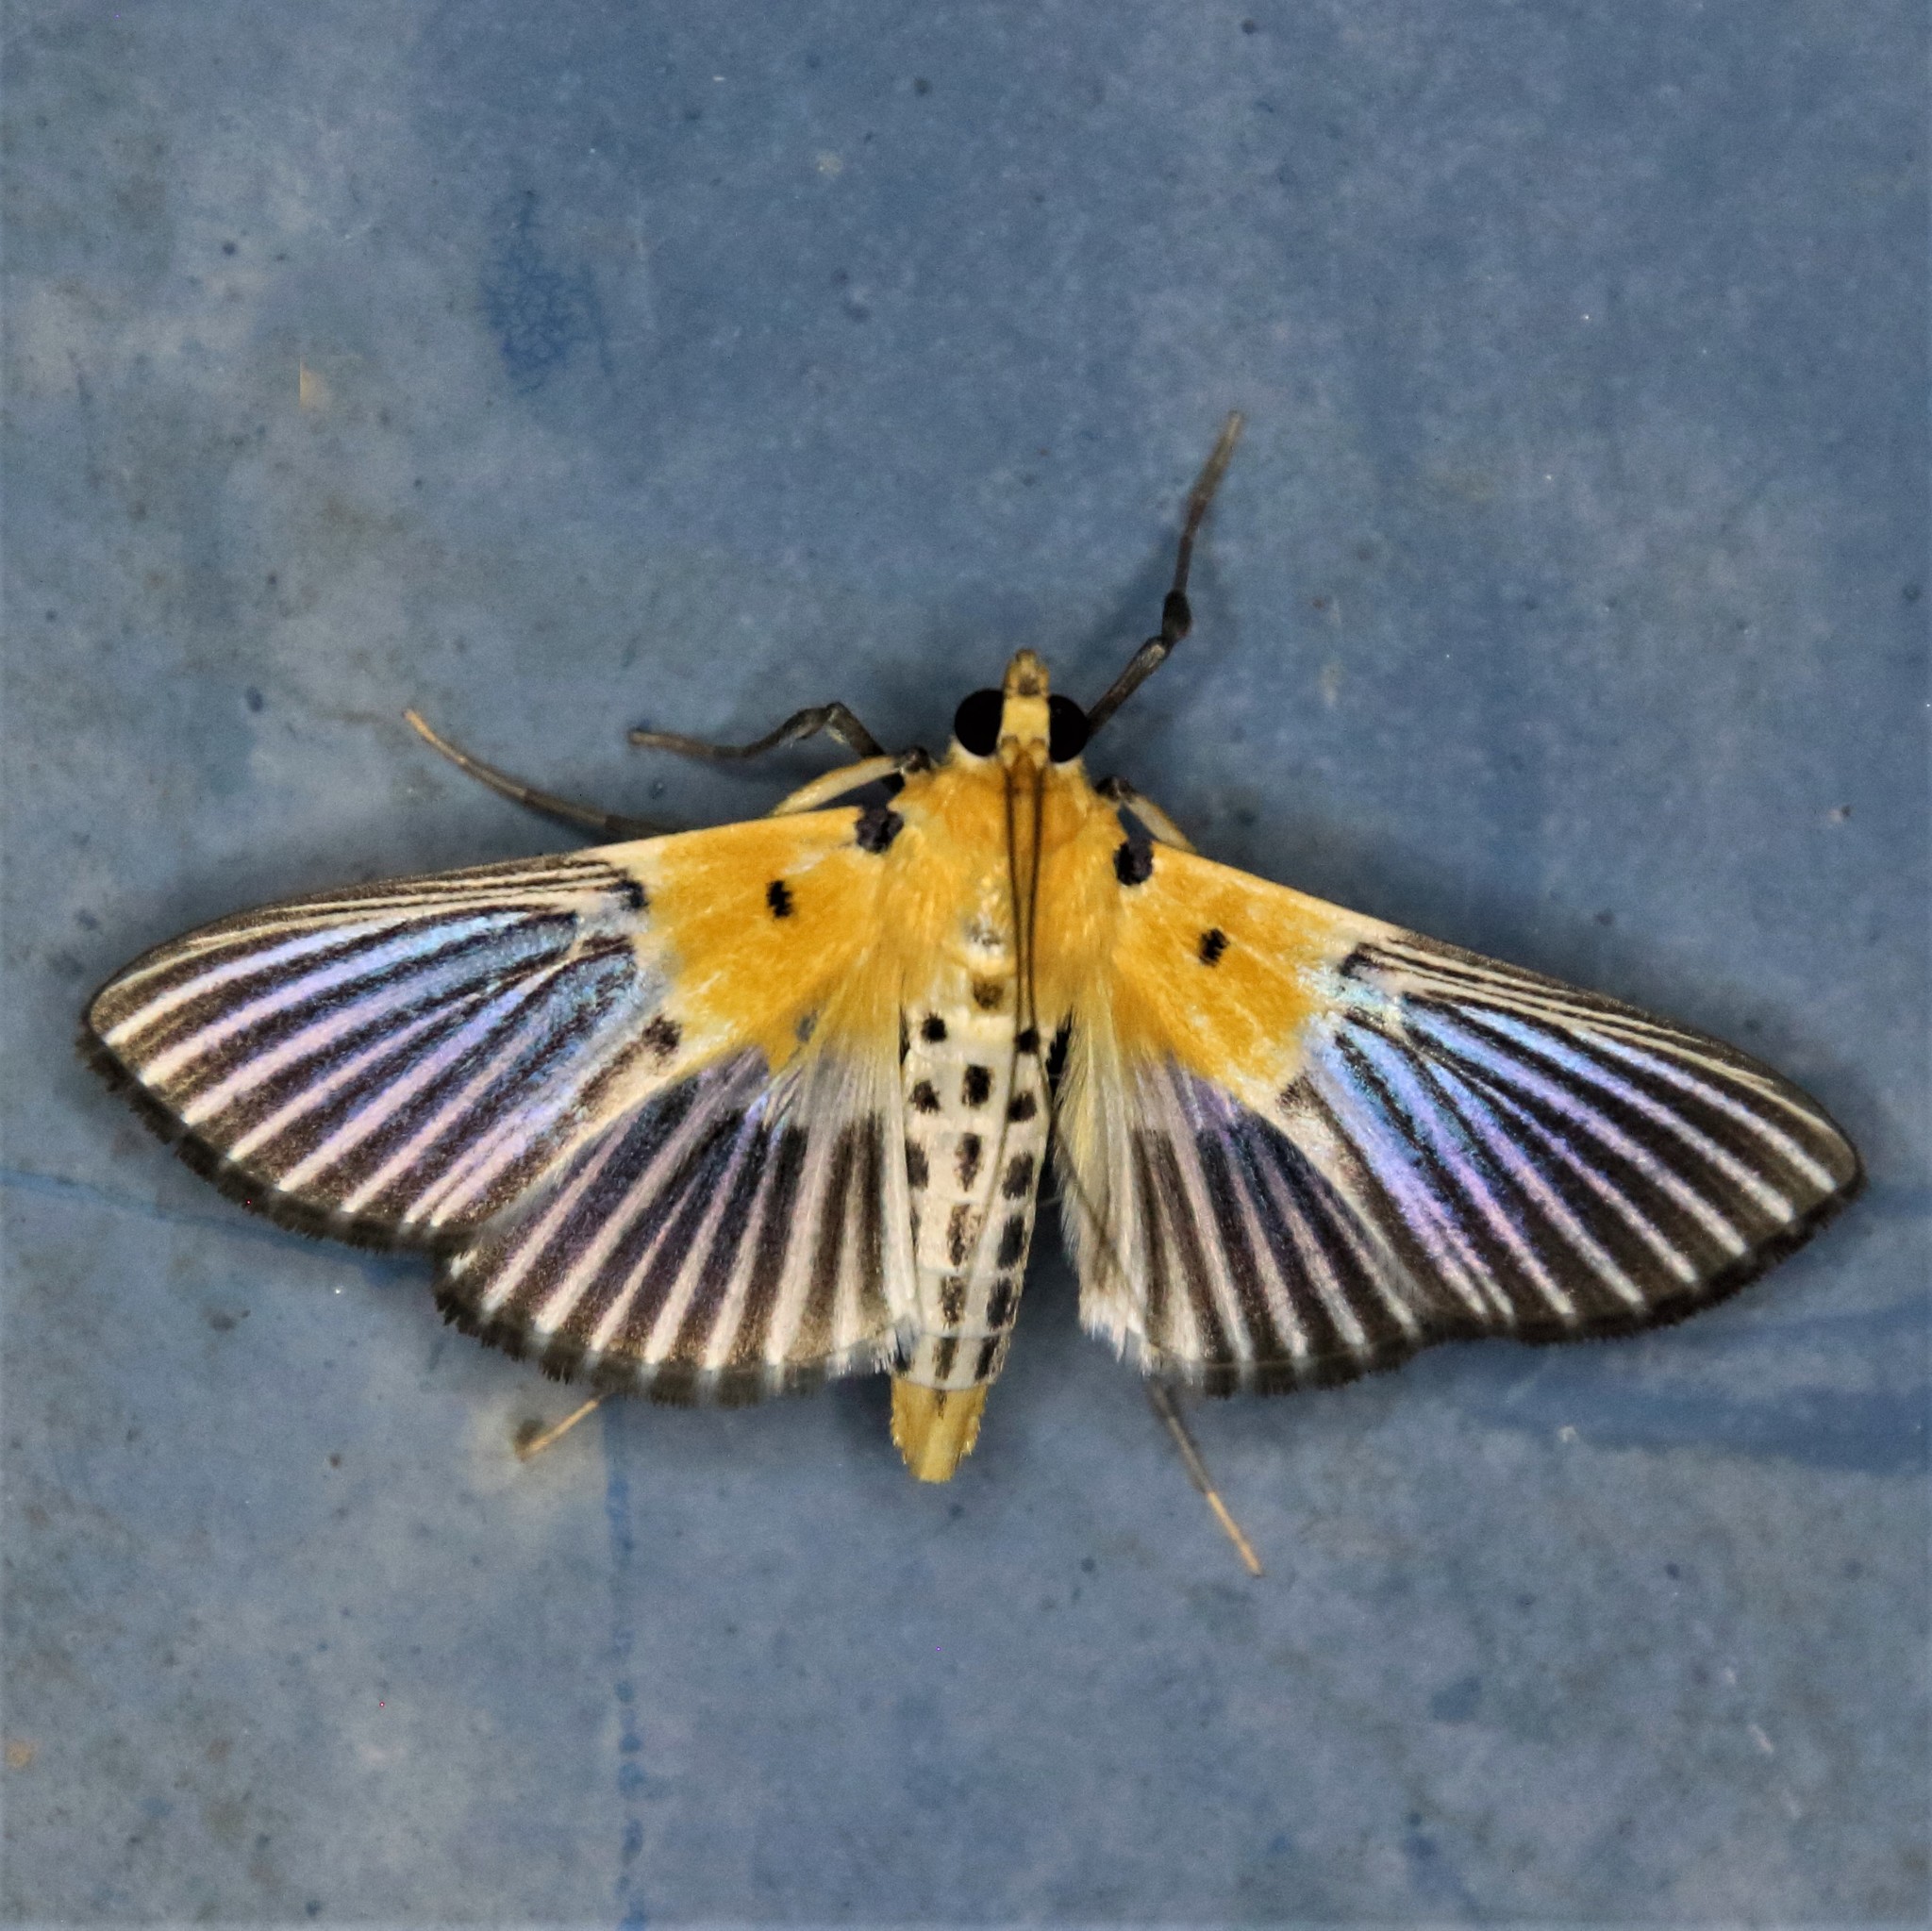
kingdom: Animalia
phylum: Arthropoda
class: Insecta
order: Lepidoptera
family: Crambidae
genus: Nevrina
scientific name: Nevrina procopia
